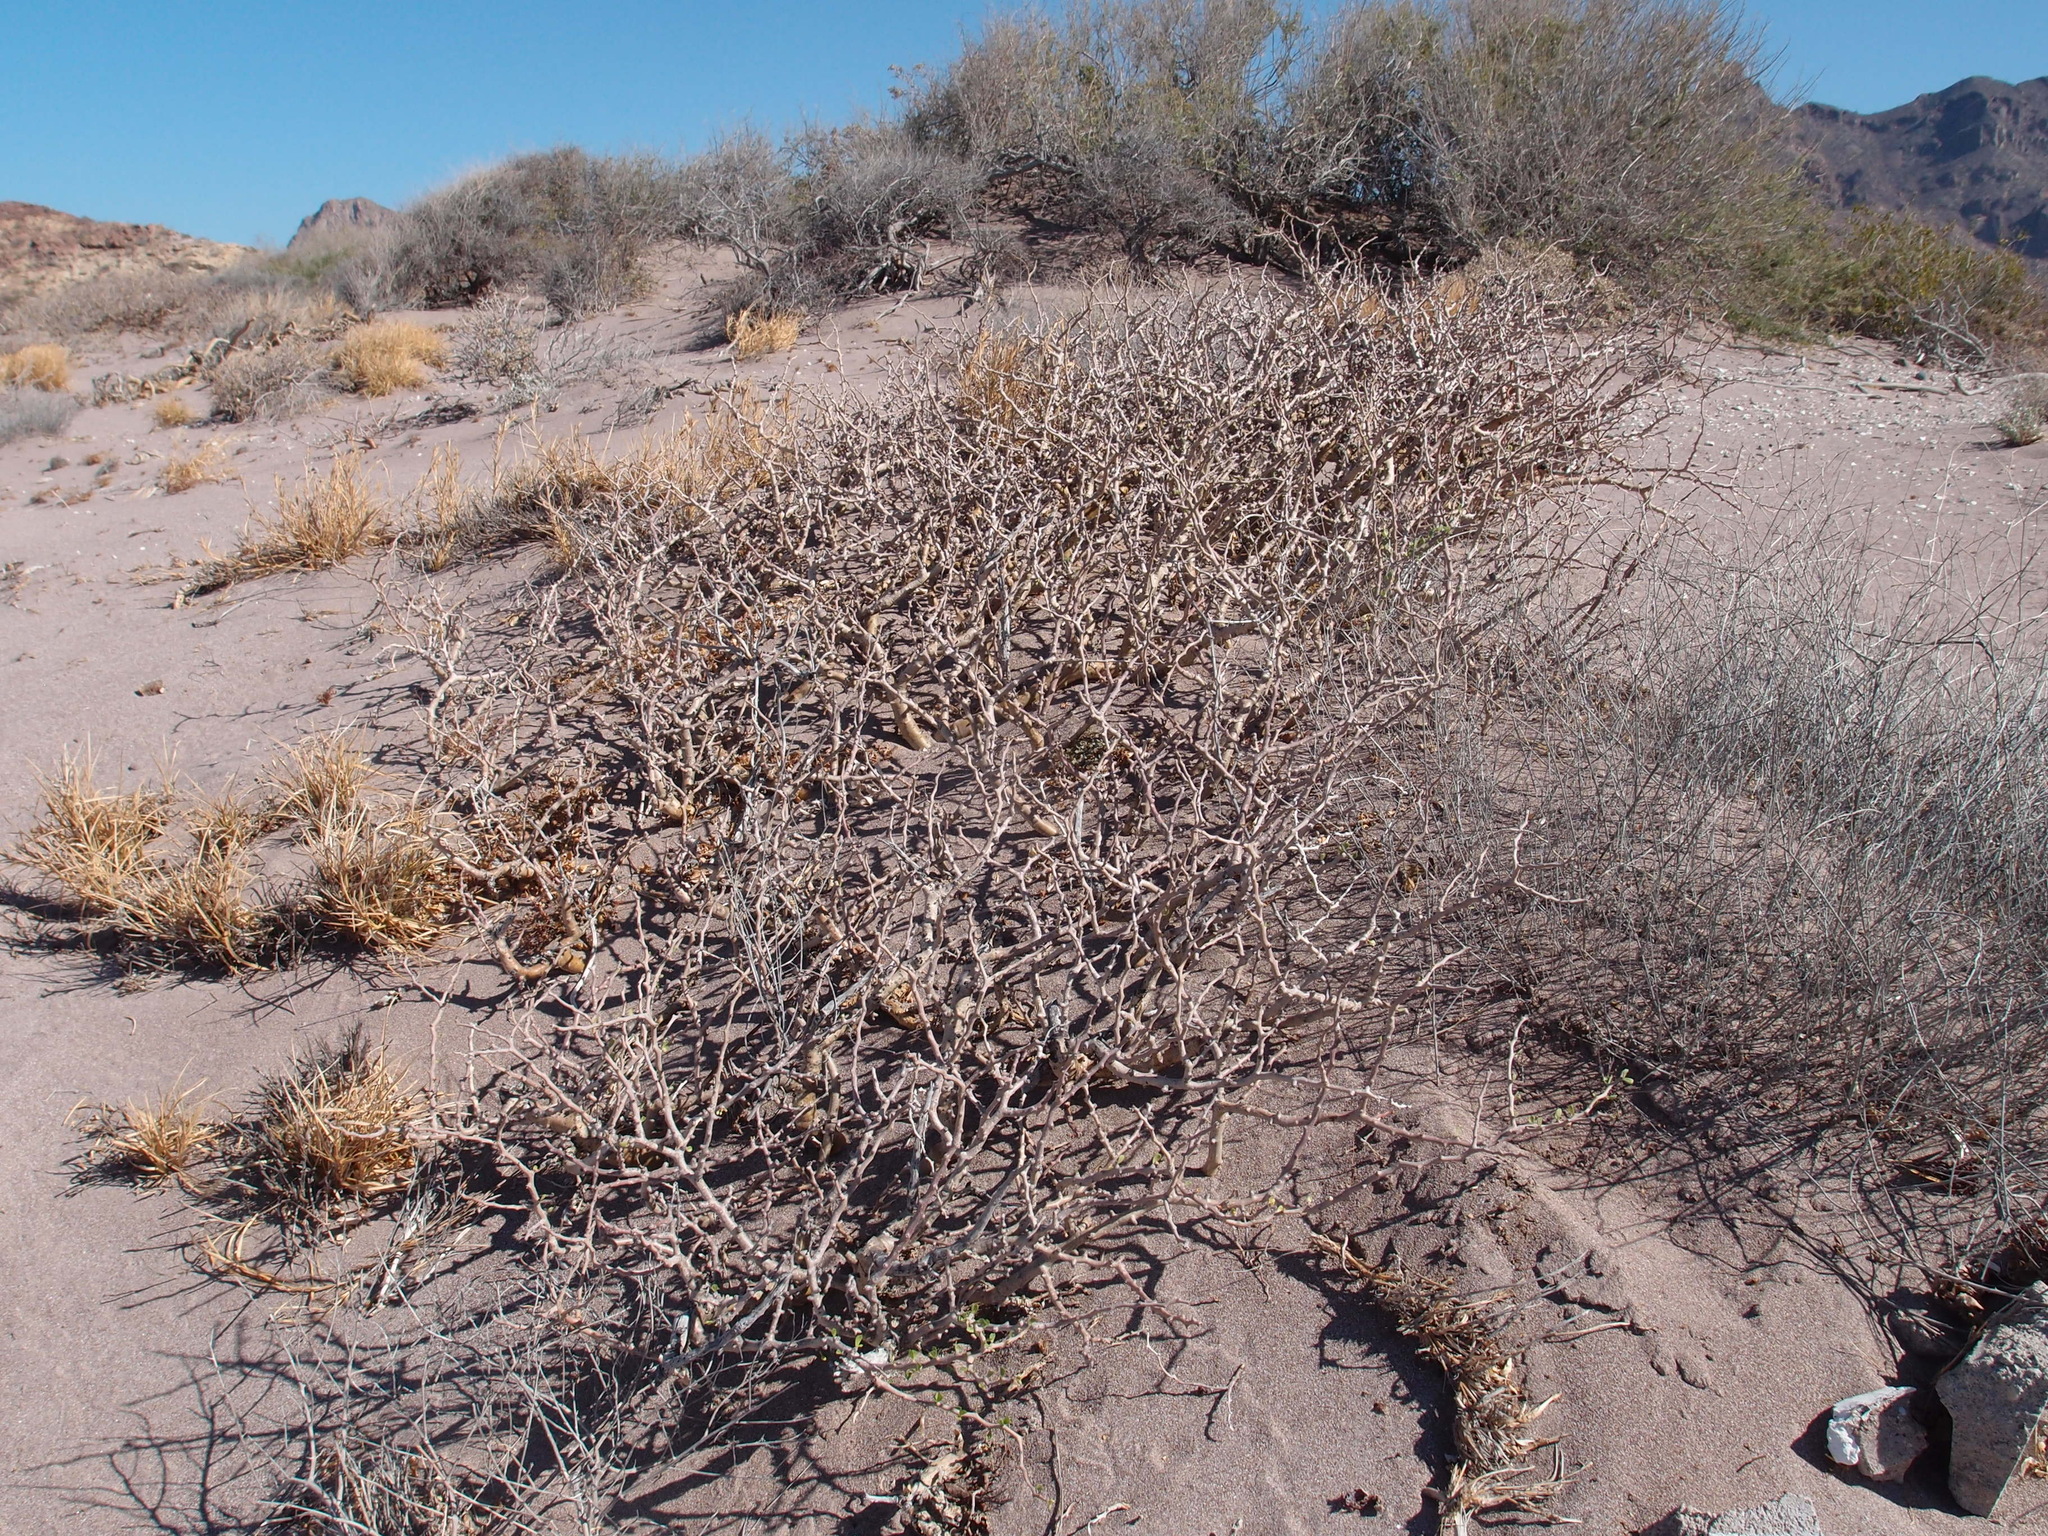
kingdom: Plantae
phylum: Tracheophyta
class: Magnoliopsida
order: Malpighiales
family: Euphorbiaceae
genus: Jatropha
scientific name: Jatropha cuneata
